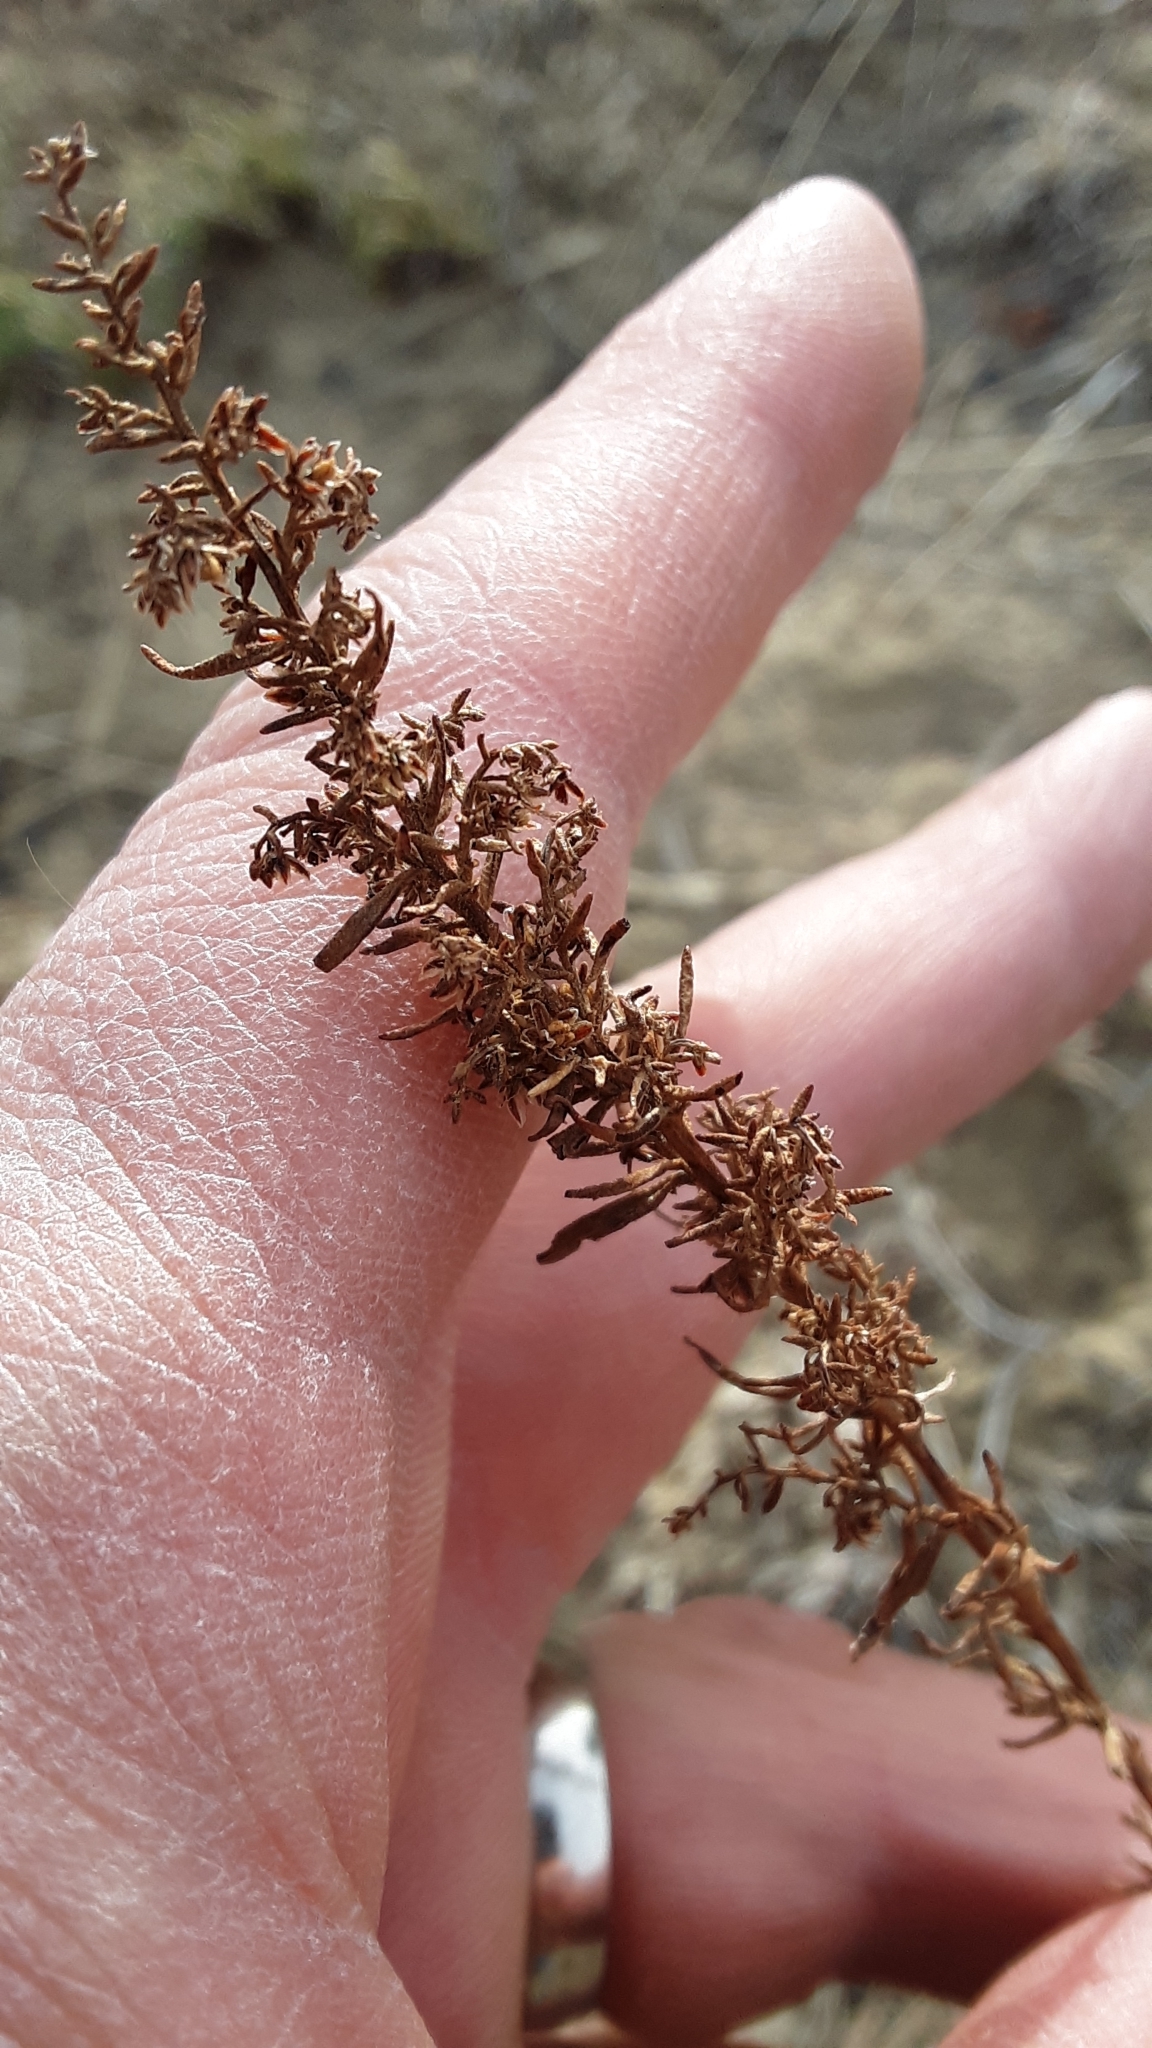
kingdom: Plantae
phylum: Tracheophyta
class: Magnoliopsida
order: Asterales
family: Asteraceae
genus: Artemisia
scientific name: Artemisia campestris
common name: Field wormwood
